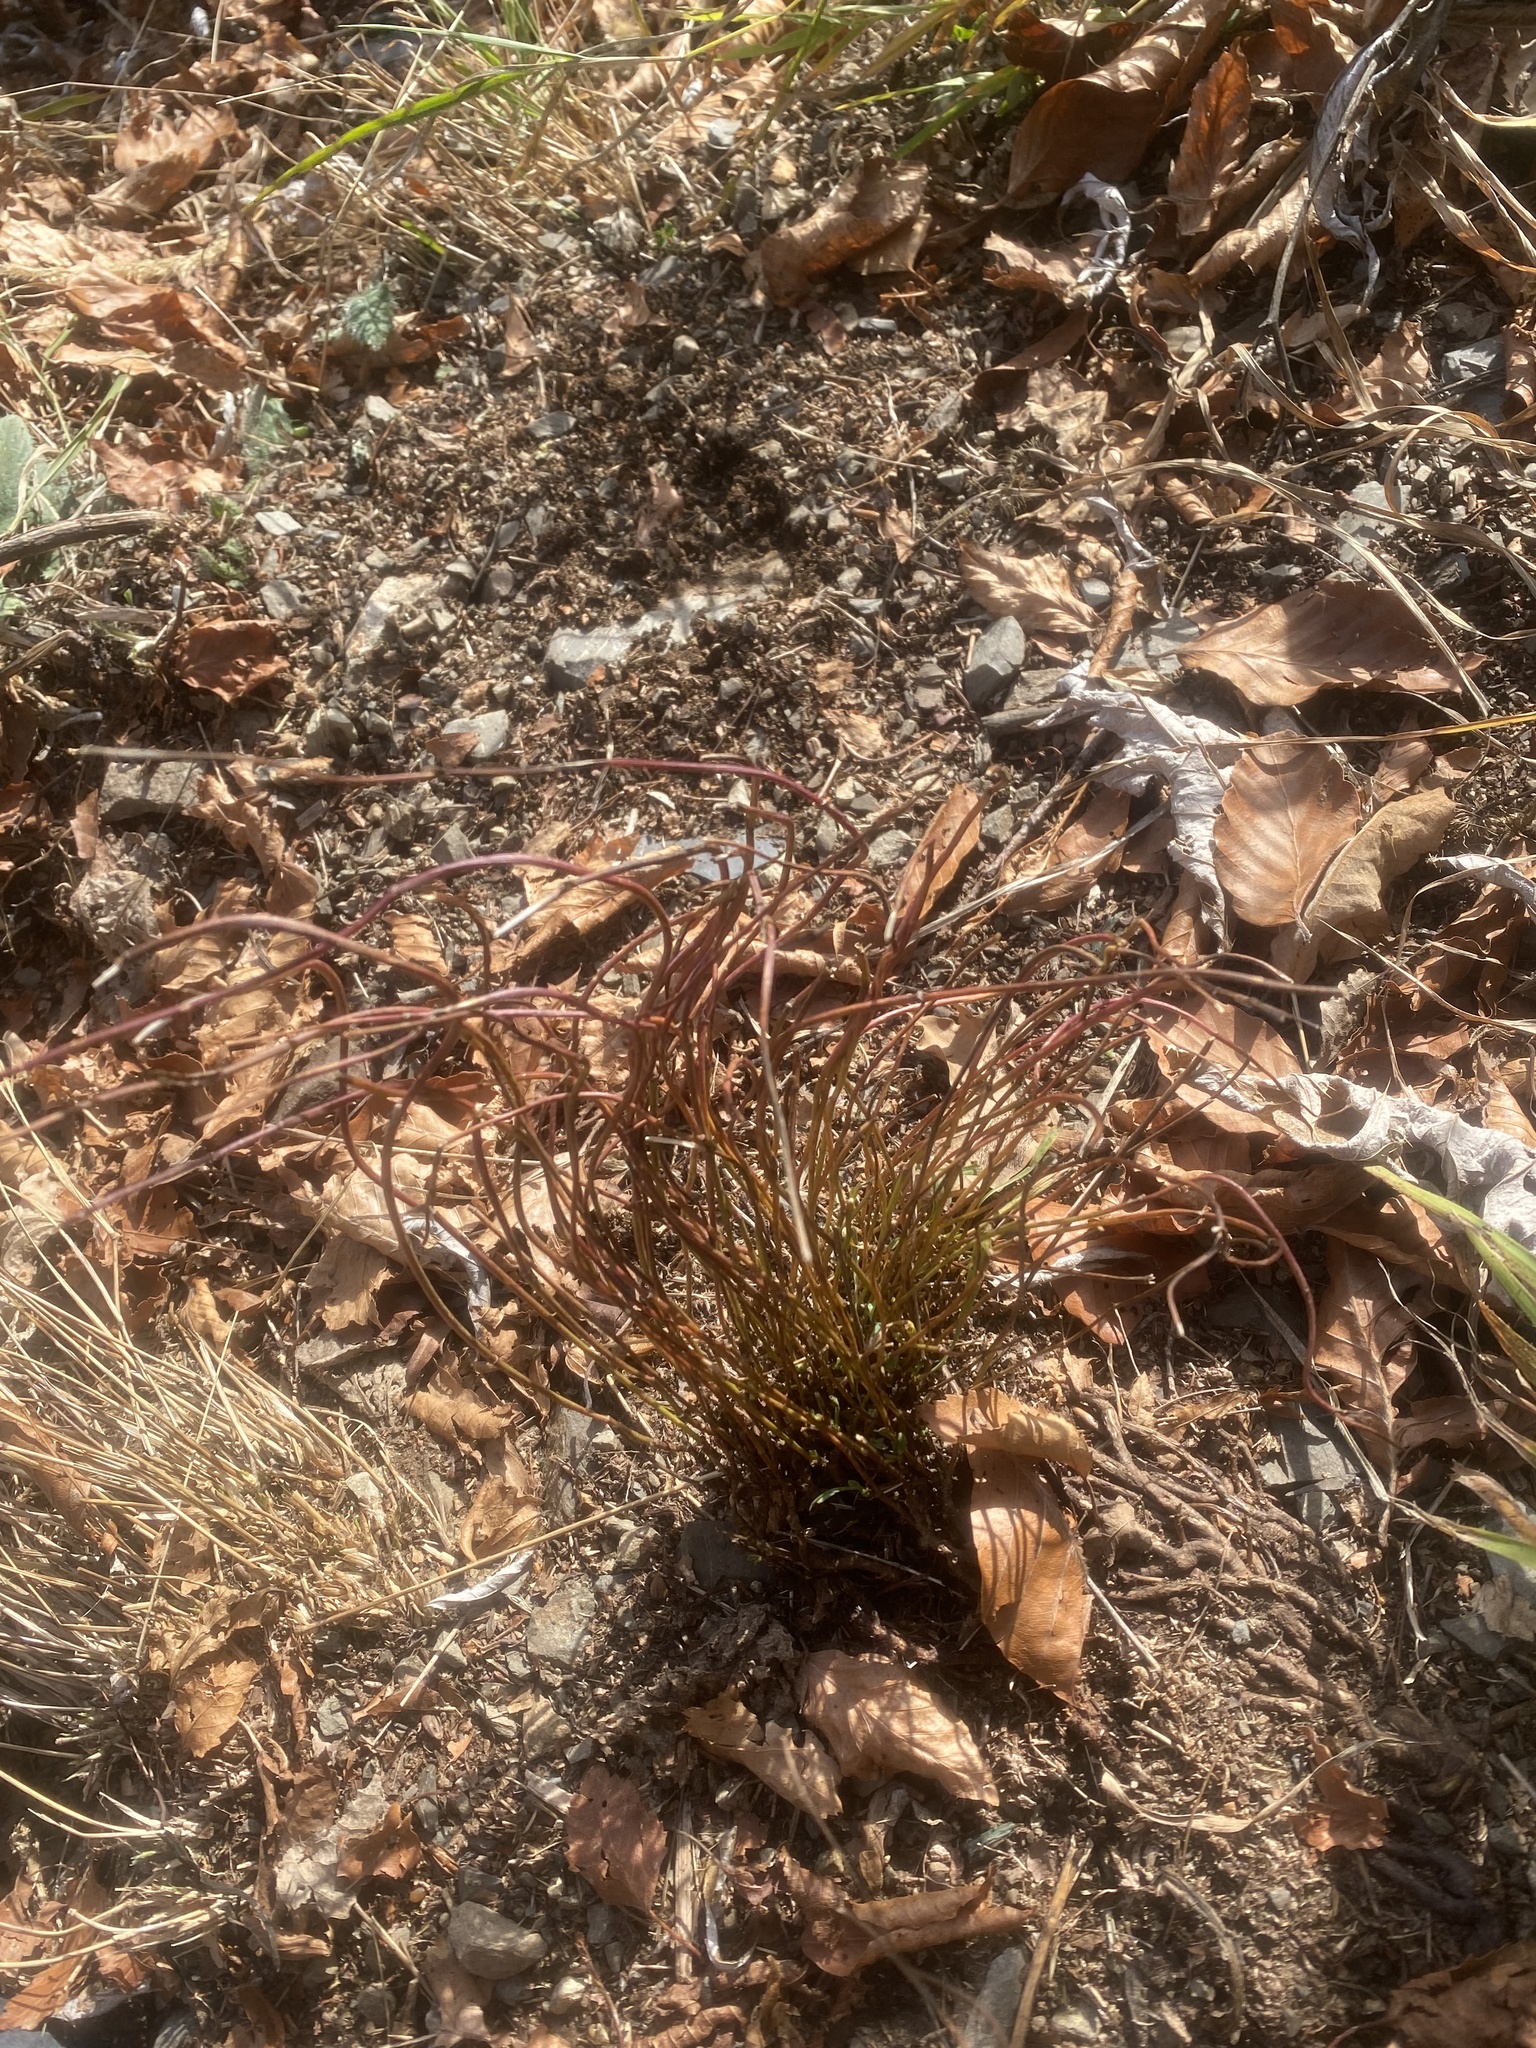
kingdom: Plantae
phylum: Tracheophyta
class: Polypodiopsida
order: Polypodiales
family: Aspleniaceae
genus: Asplenium
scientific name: Asplenium septentrionale
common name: Forked spleenwort
